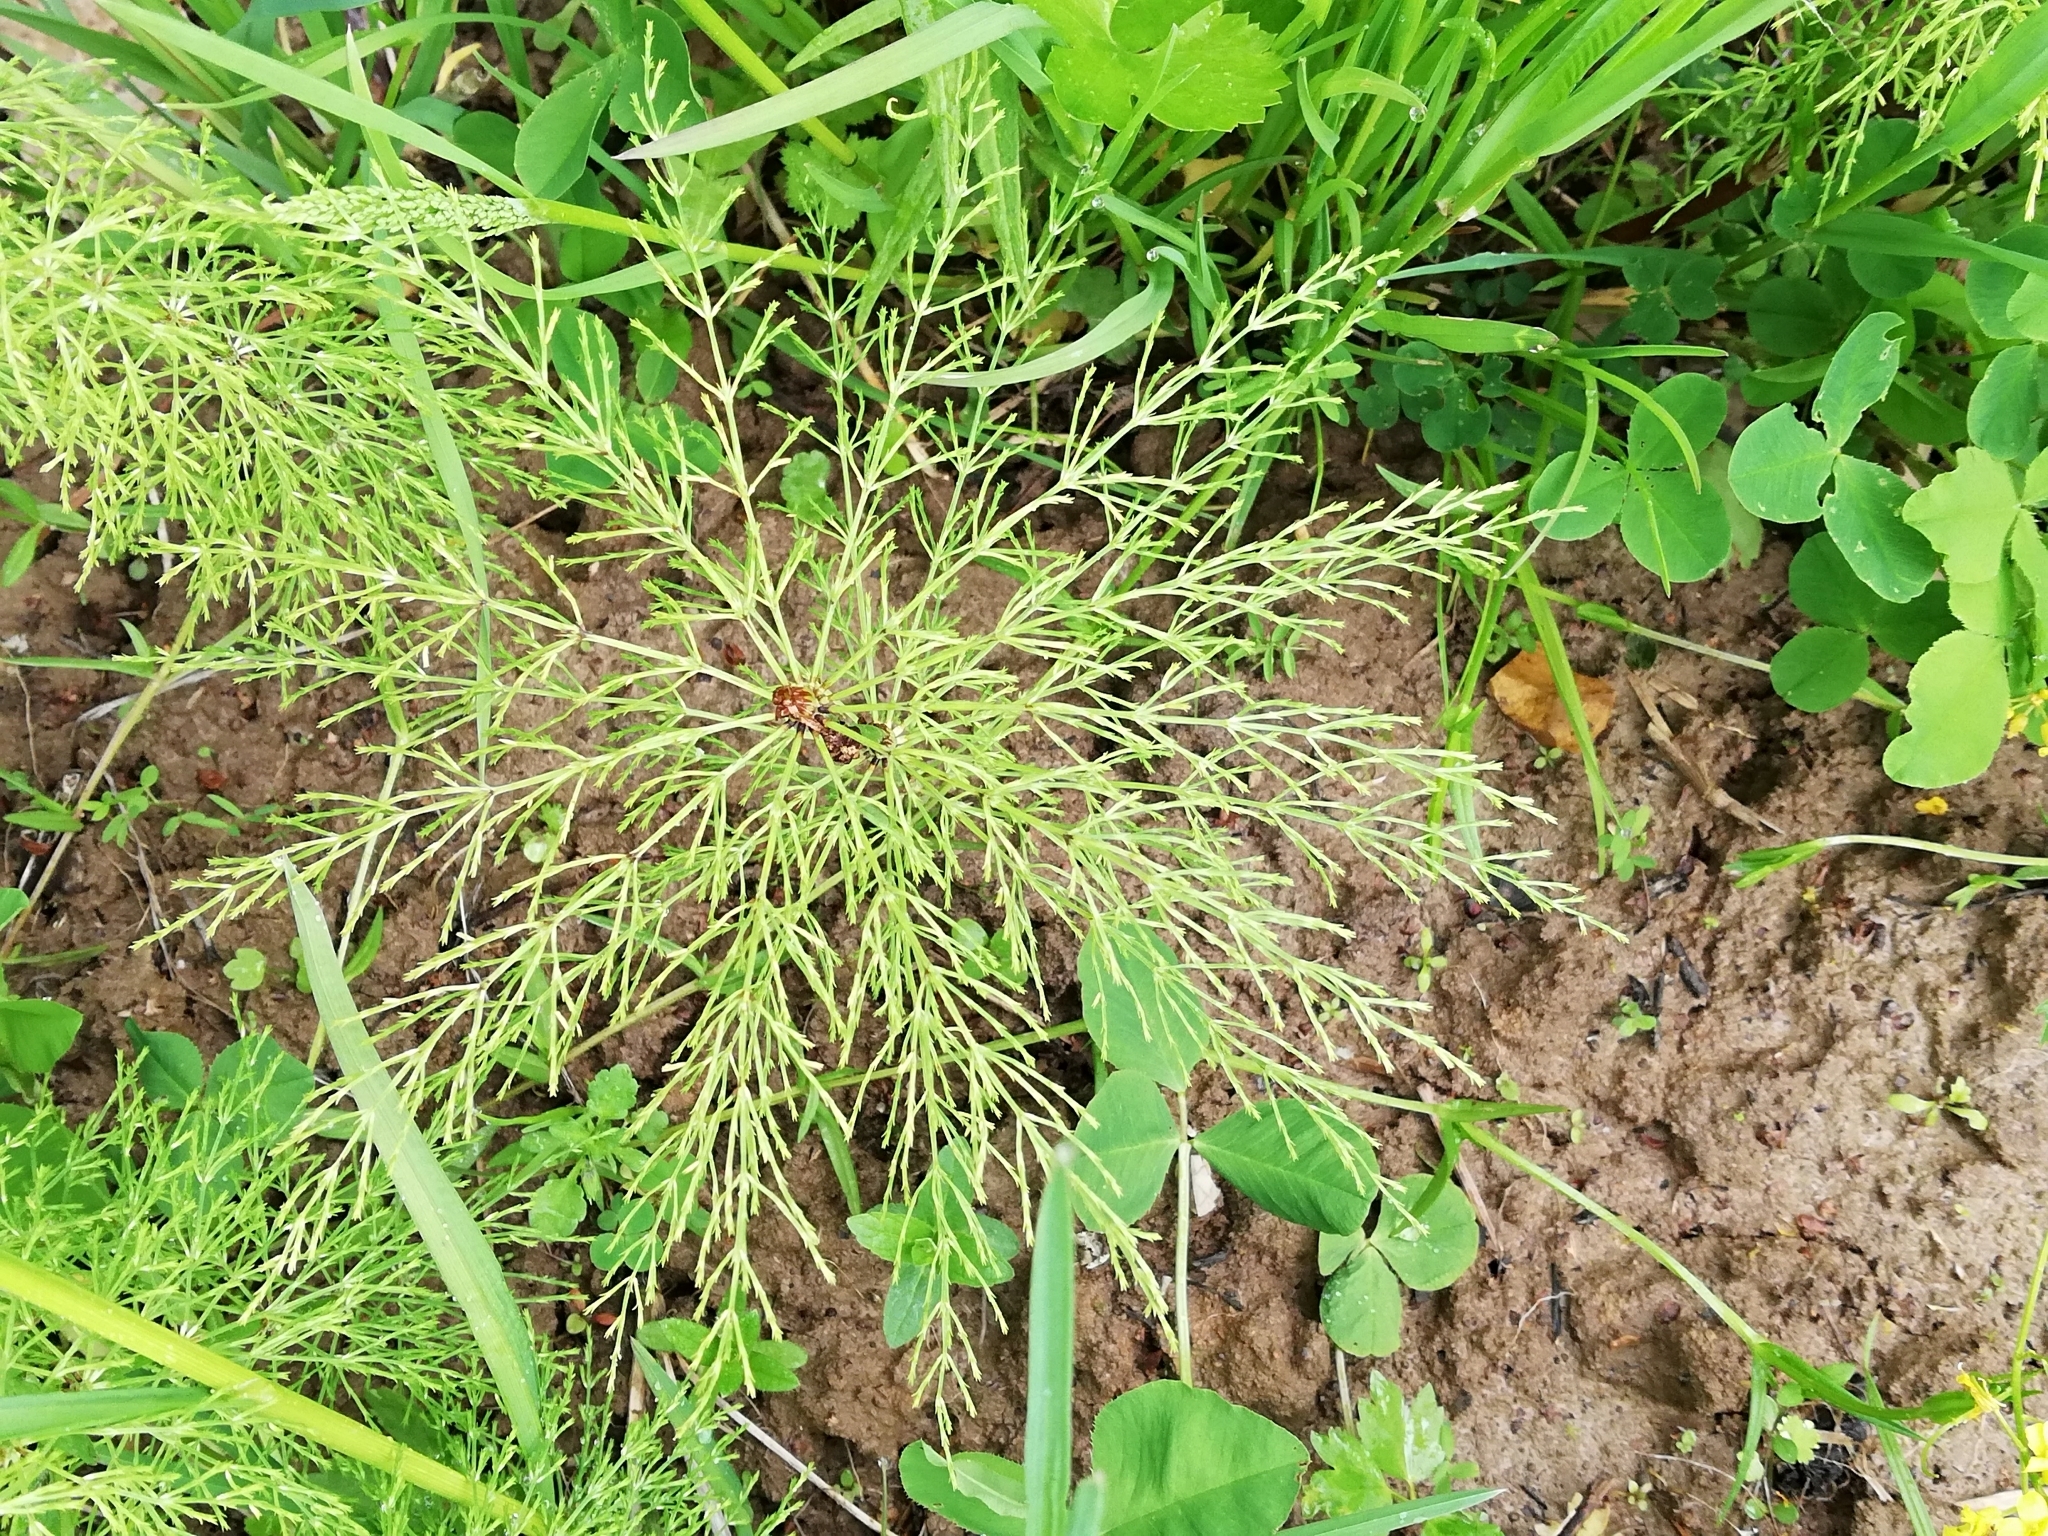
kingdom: Plantae
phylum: Tracheophyta
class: Polypodiopsida
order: Equisetales
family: Equisetaceae
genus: Equisetum
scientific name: Equisetum sylvaticum
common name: Wood horsetail
